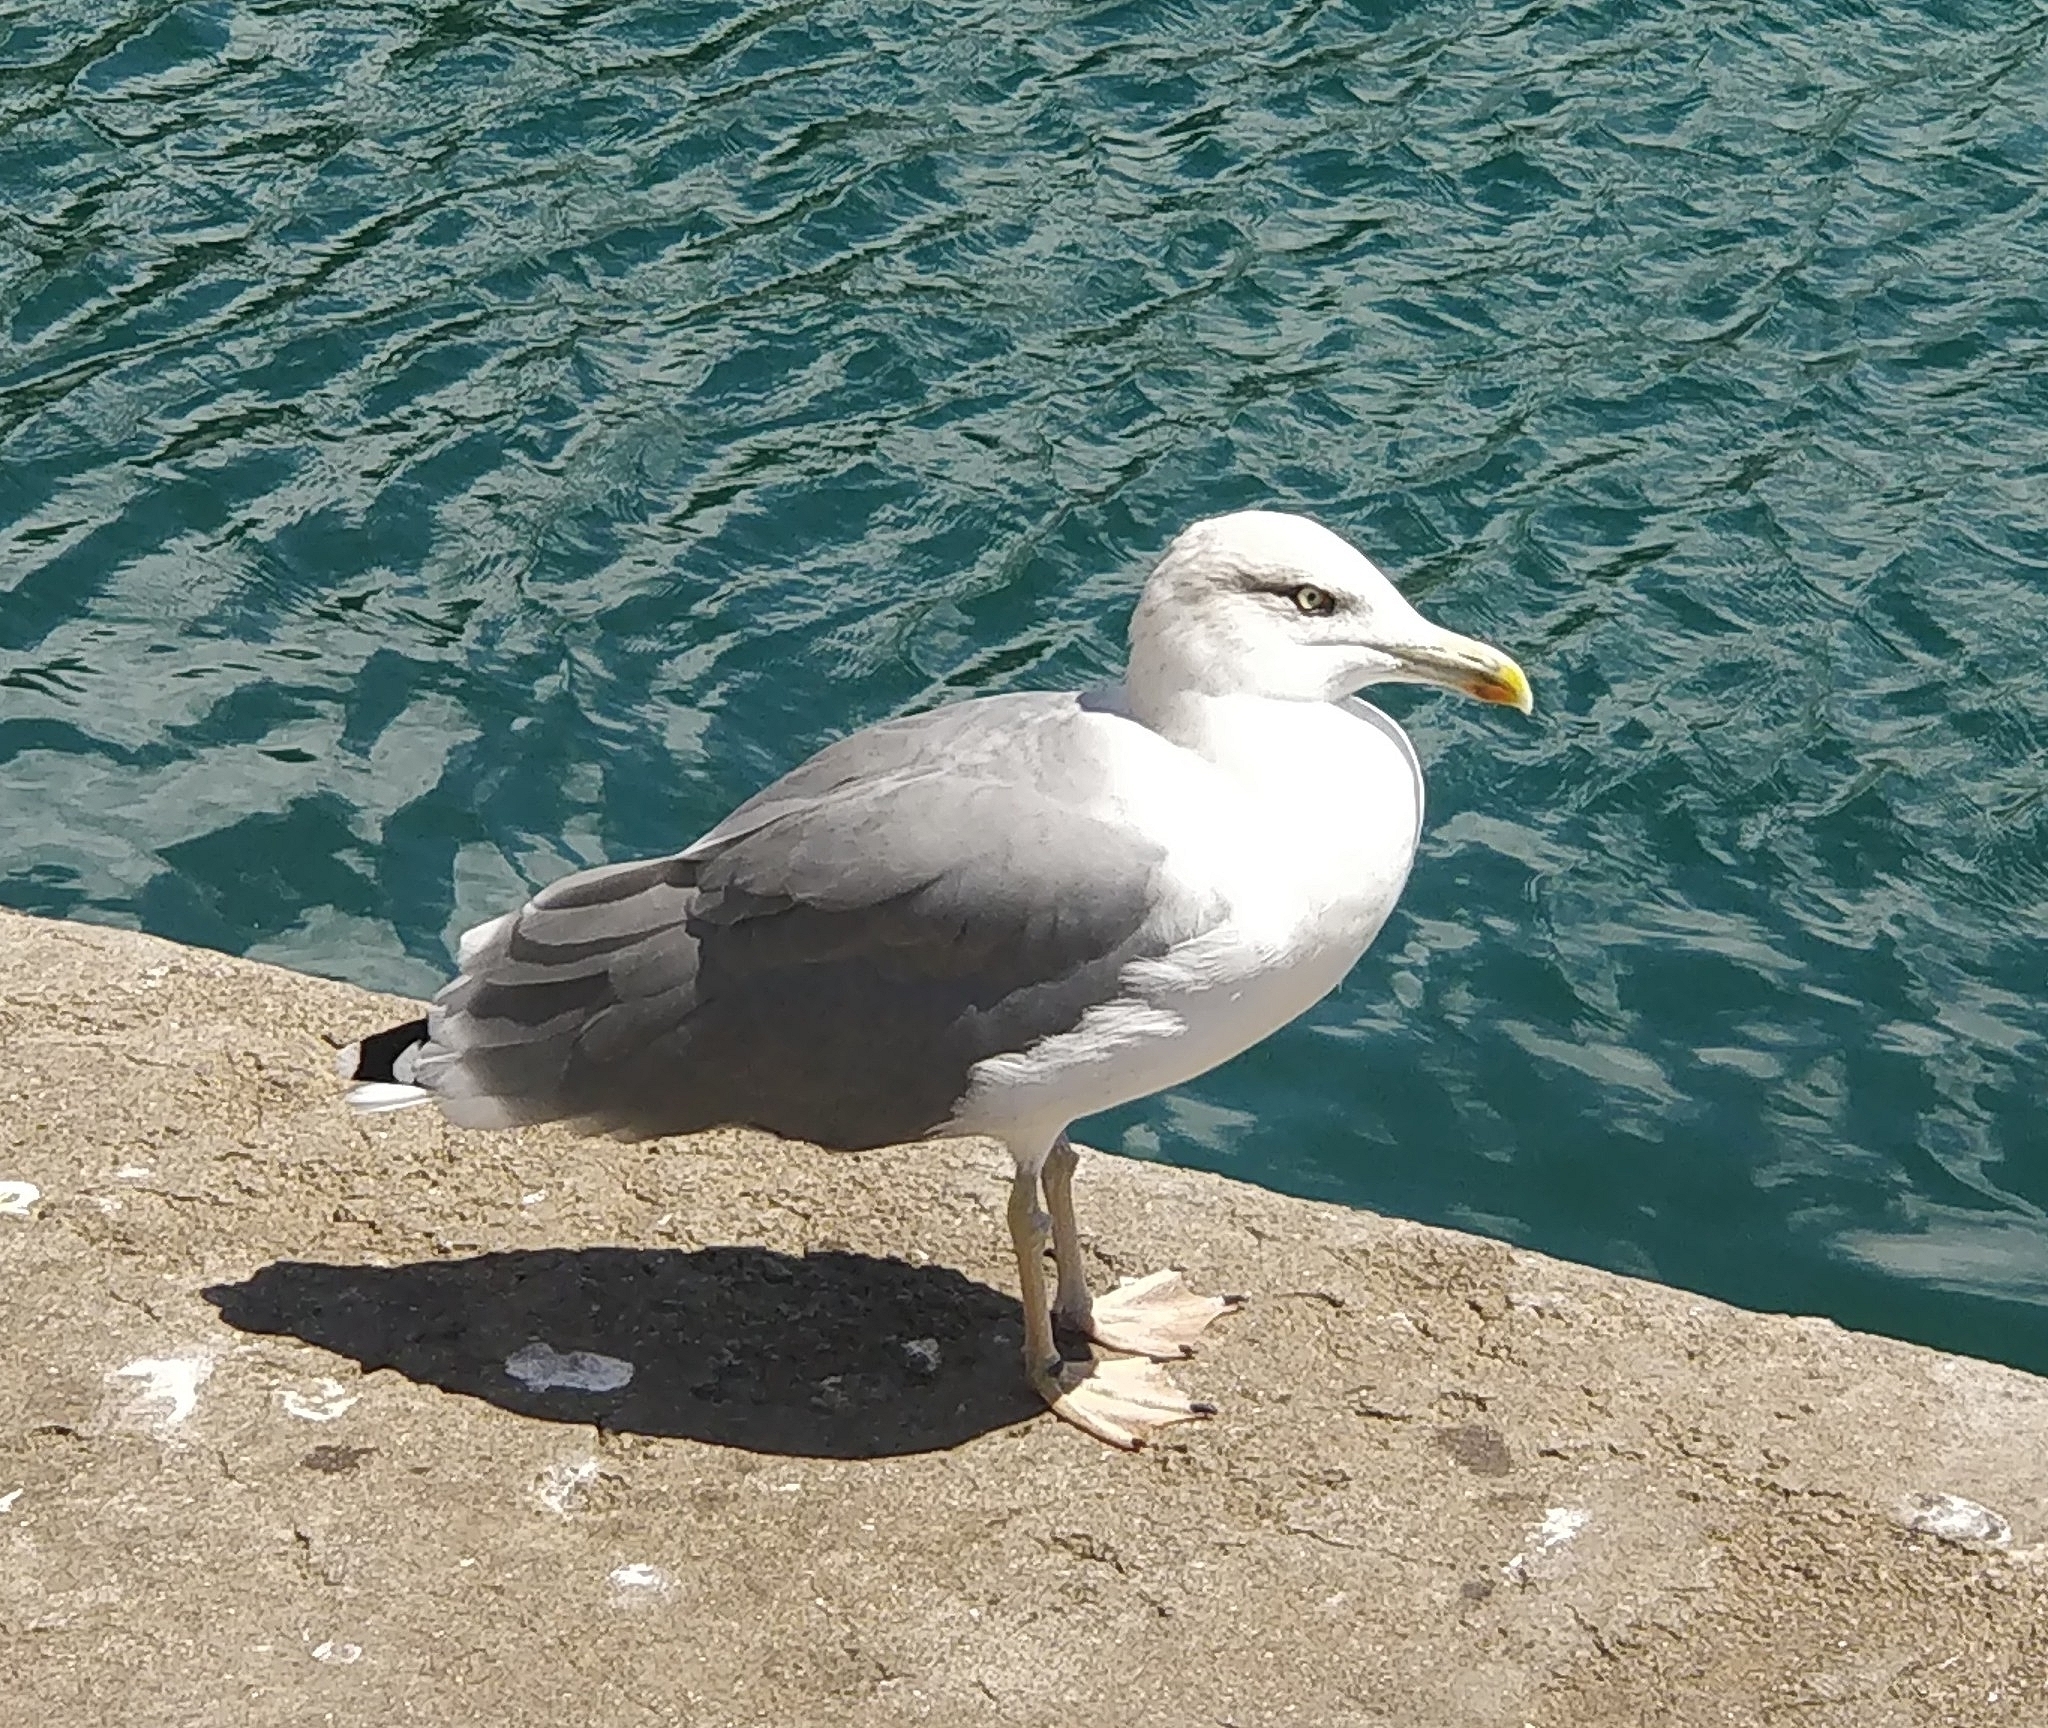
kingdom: Animalia
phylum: Chordata
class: Aves
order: Charadriiformes
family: Laridae
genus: Larus
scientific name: Larus michahellis
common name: Yellow-legged gull
